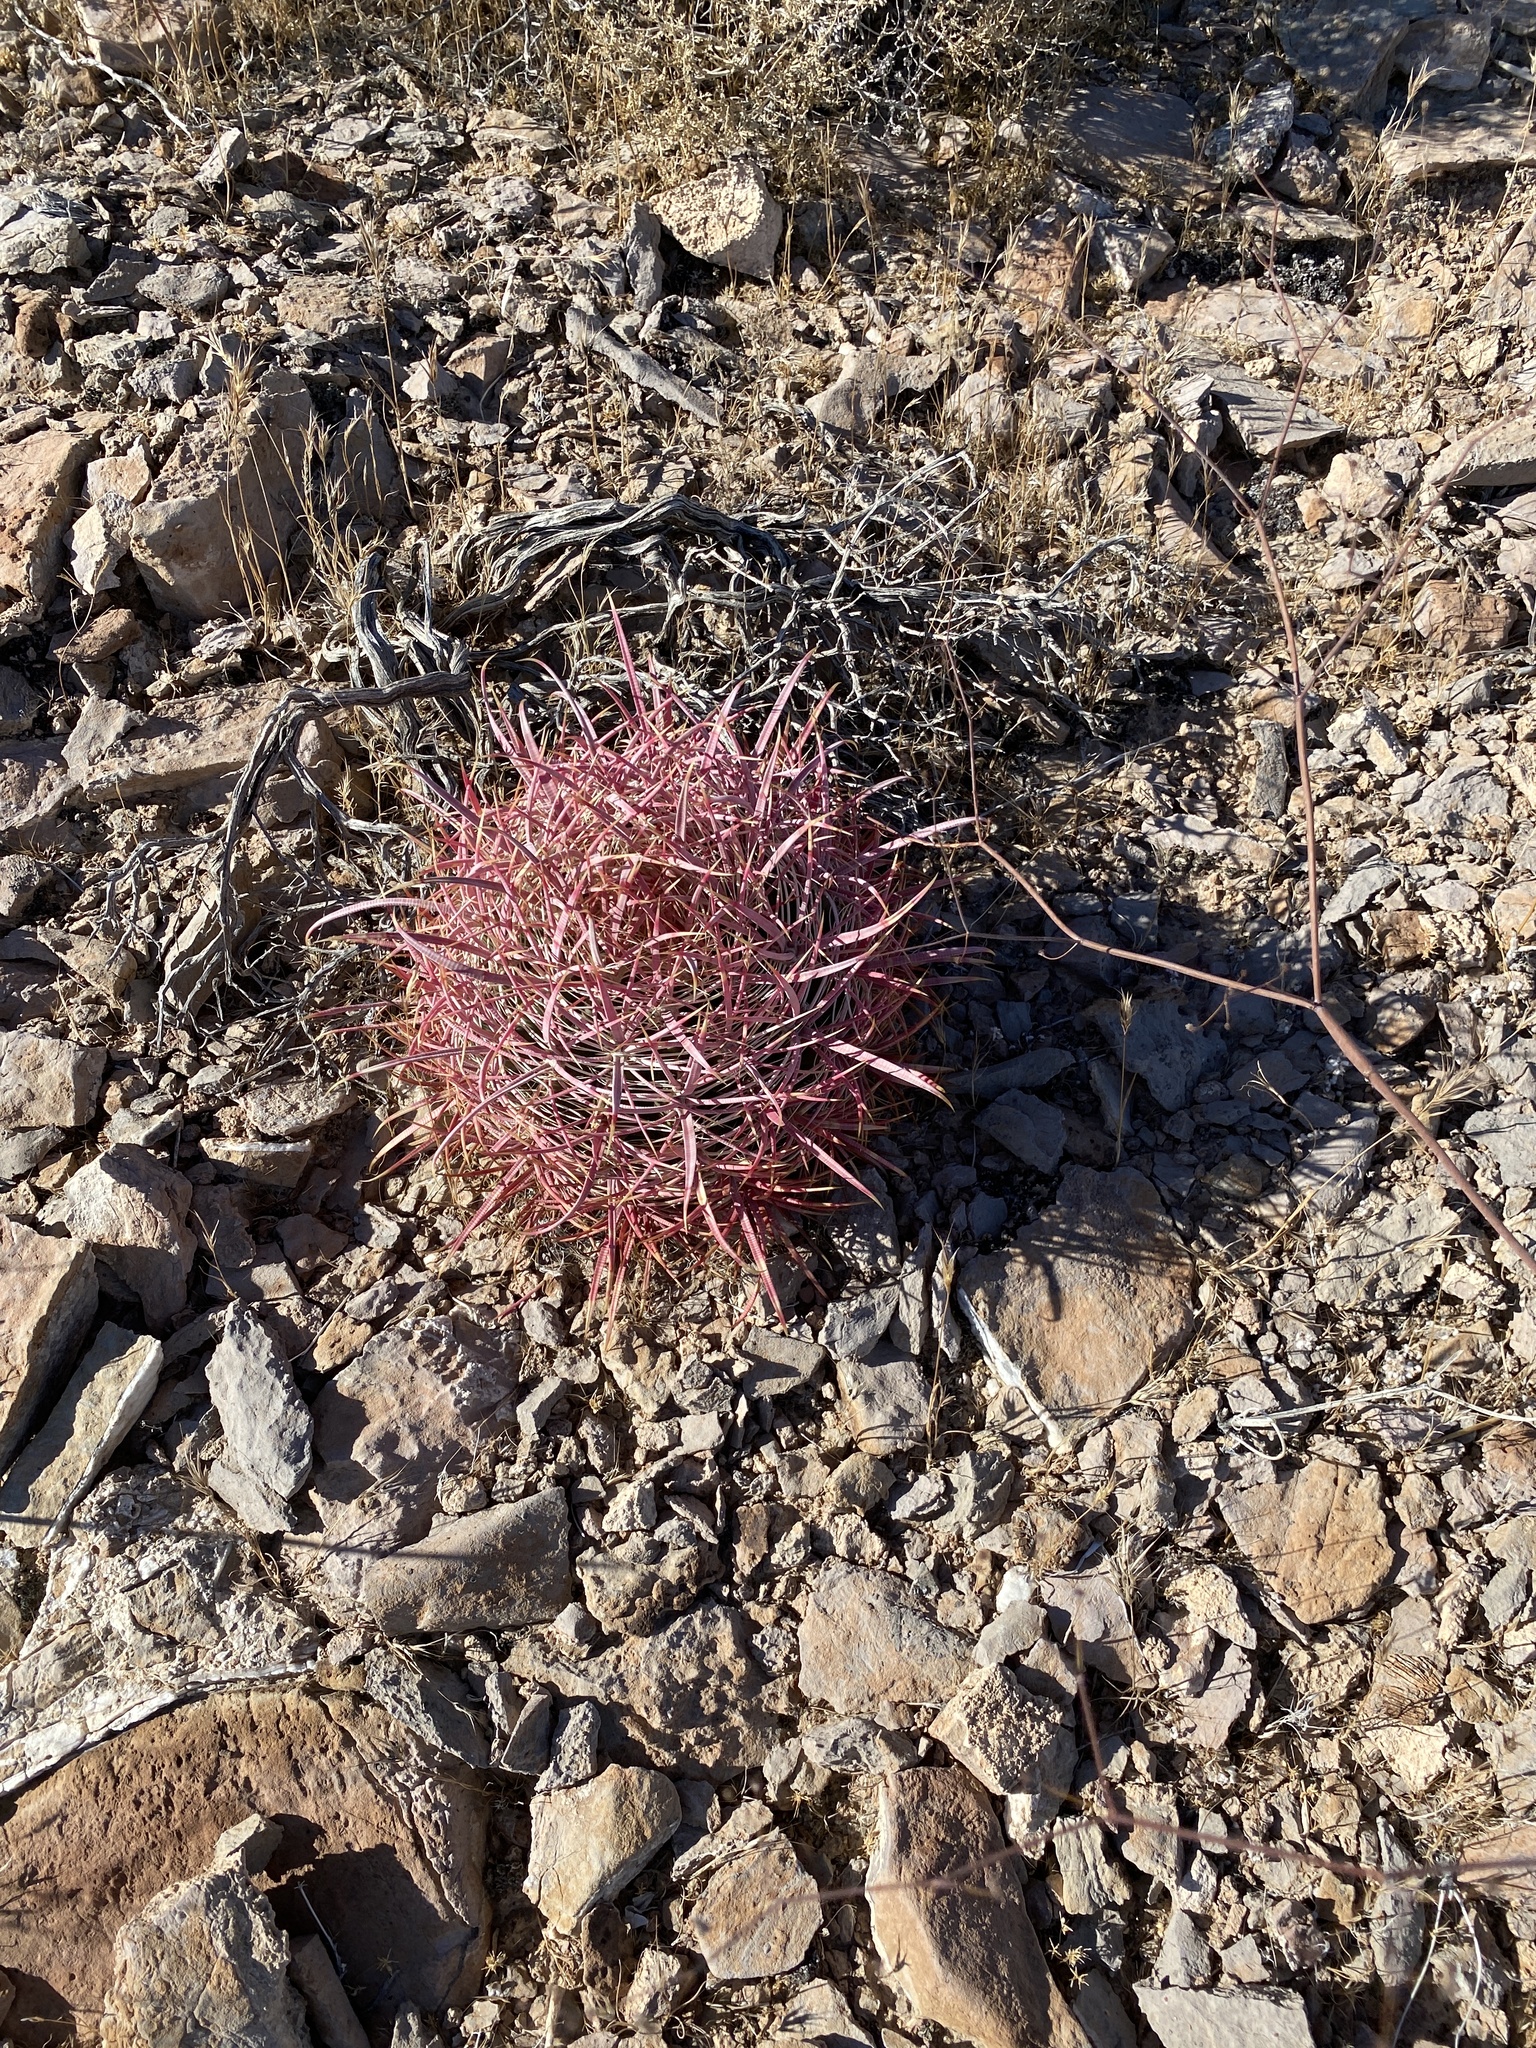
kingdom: Plantae
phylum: Tracheophyta
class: Magnoliopsida
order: Caryophyllales
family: Cactaceae
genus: Ferocactus
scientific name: Ferocactus cylindraceus
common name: California barrel cactus
